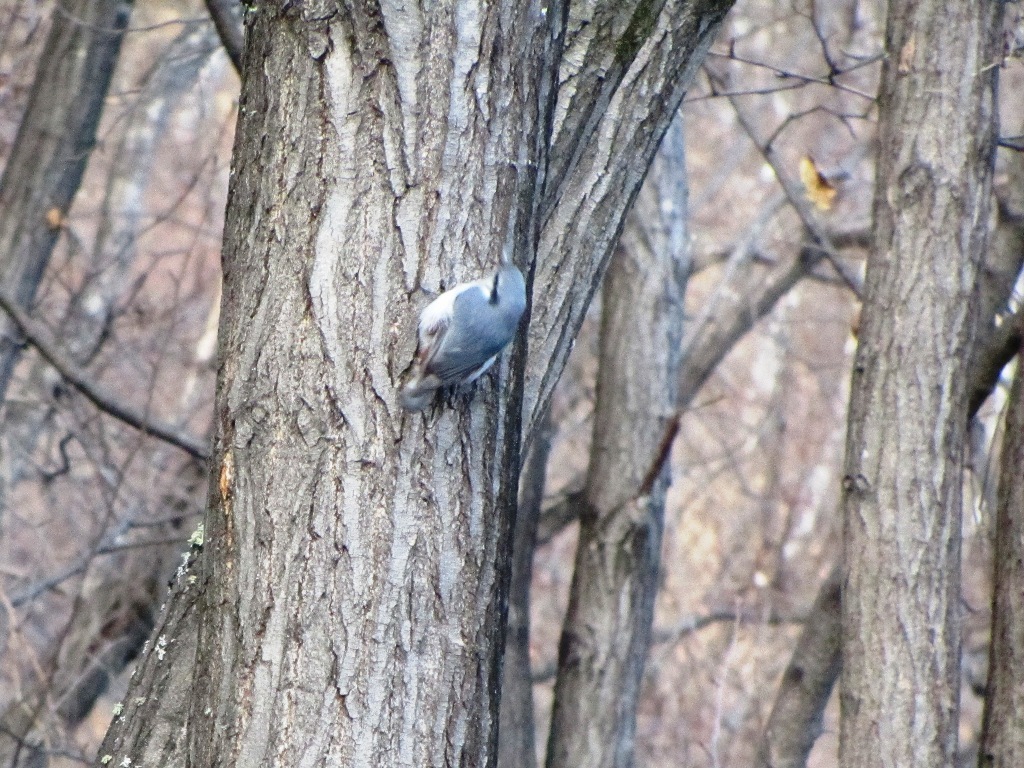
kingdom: Animalia
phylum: Chordata
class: Aves
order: Passeriformes
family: Sittidae
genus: Sitta
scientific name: Sitta europaea
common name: Eurasian nuthatch
